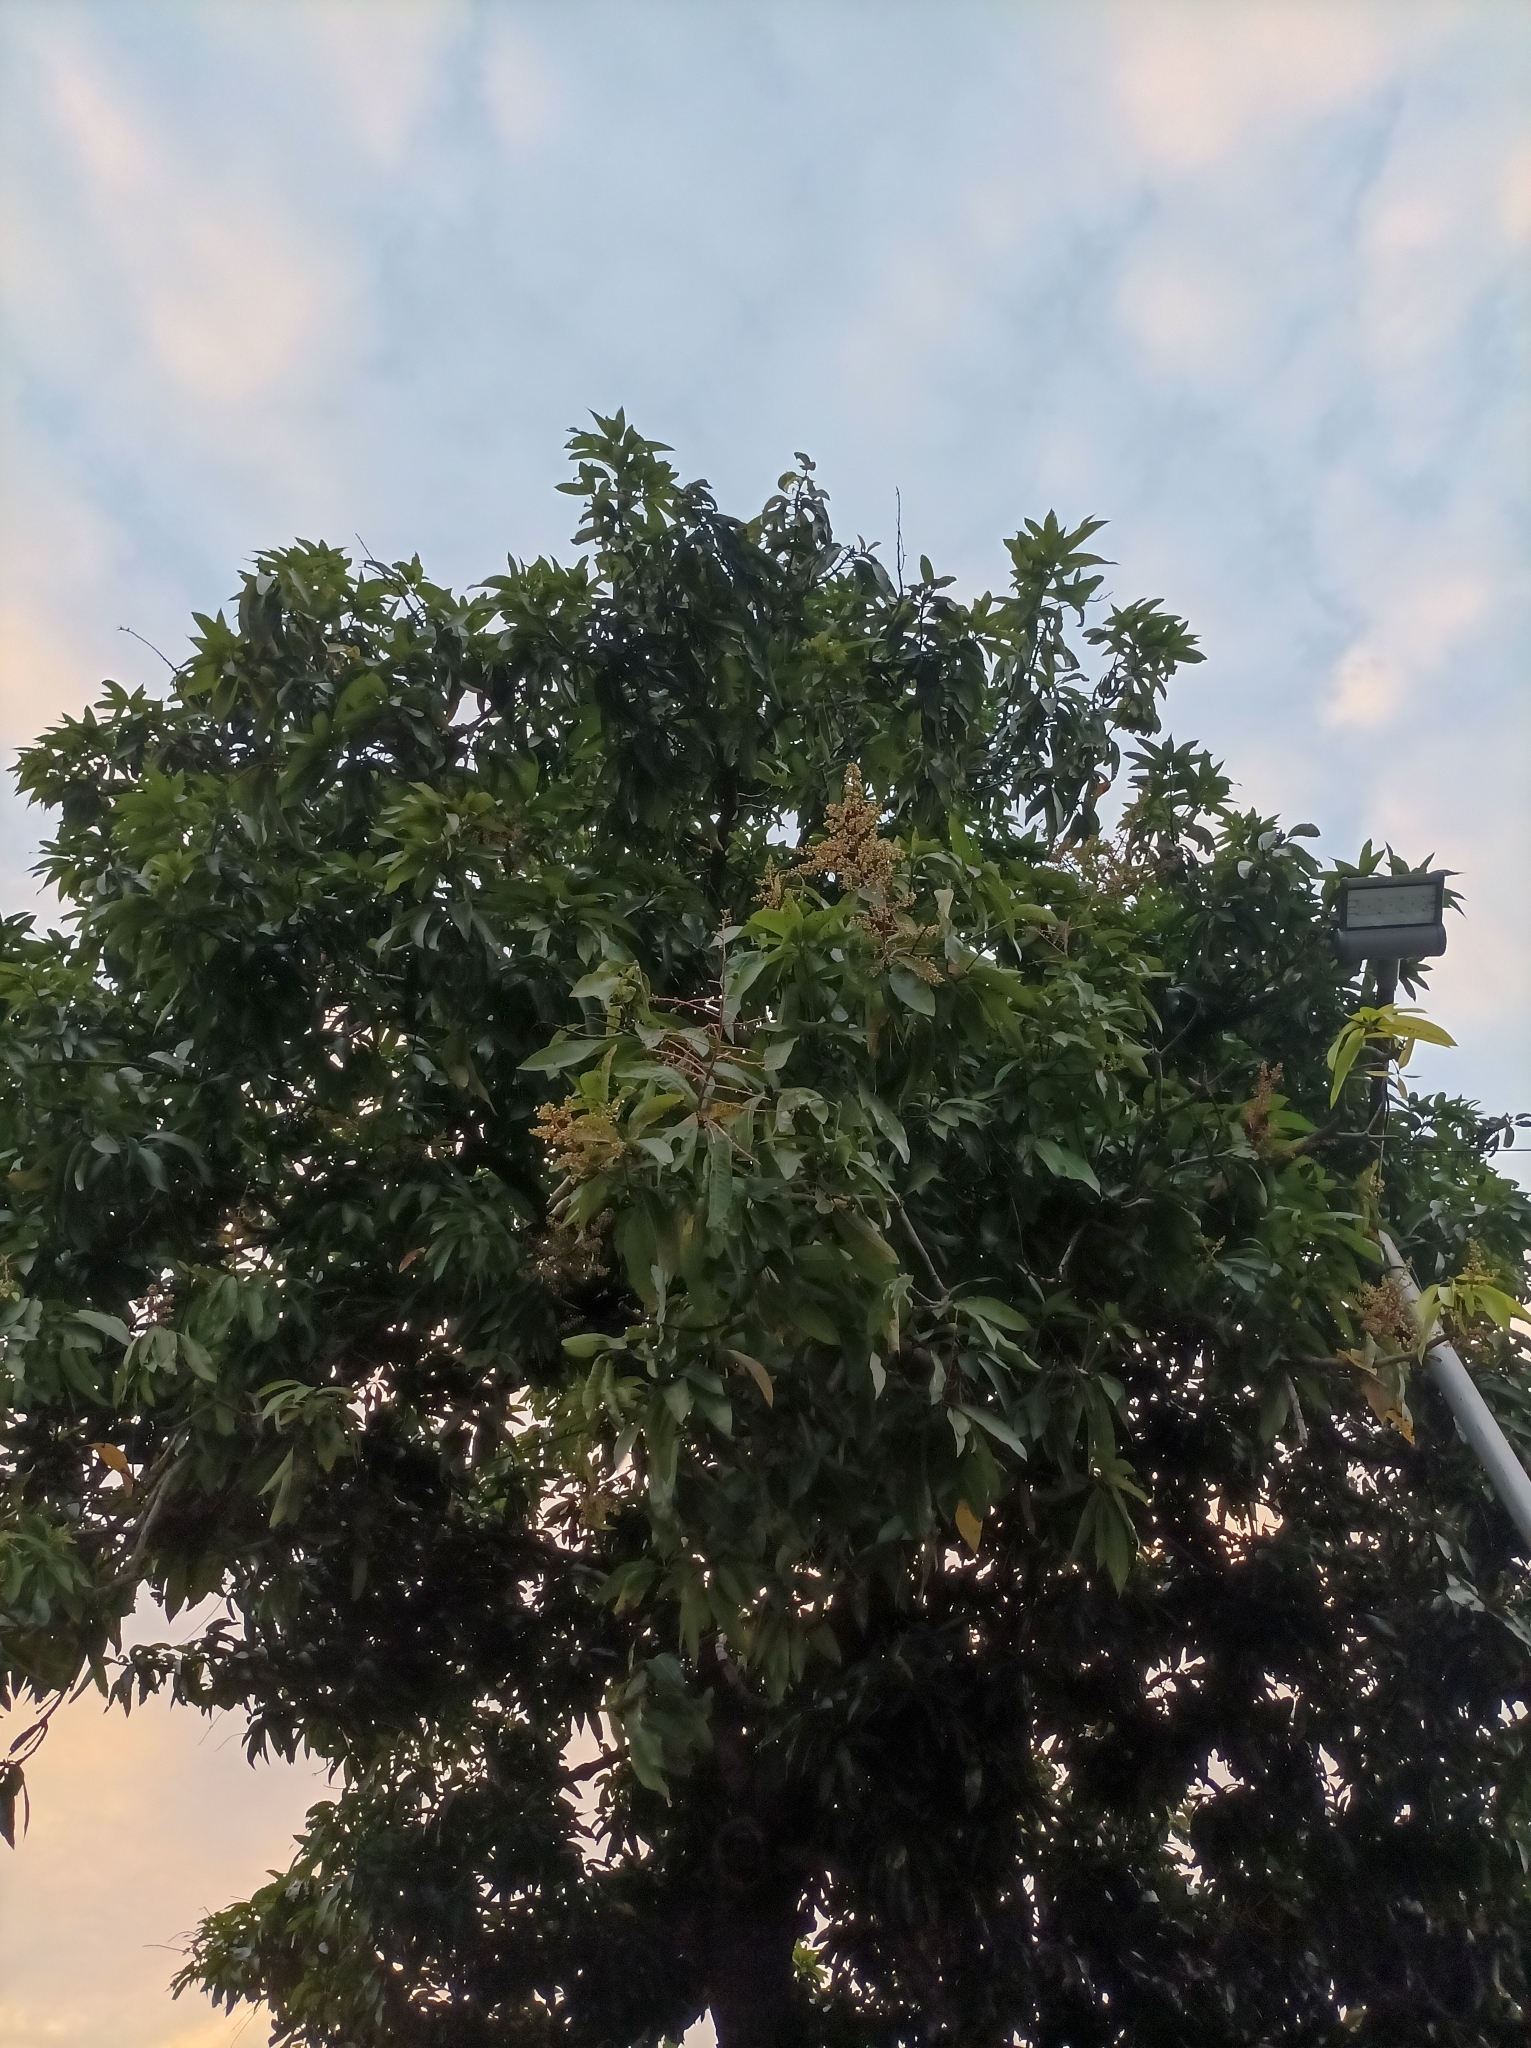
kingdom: Plantae
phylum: Tracheophyta
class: Magnoliopsida
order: Sapindales
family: Anacardiaceae
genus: Mangifera
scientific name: Mangifera indica
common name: Mango
